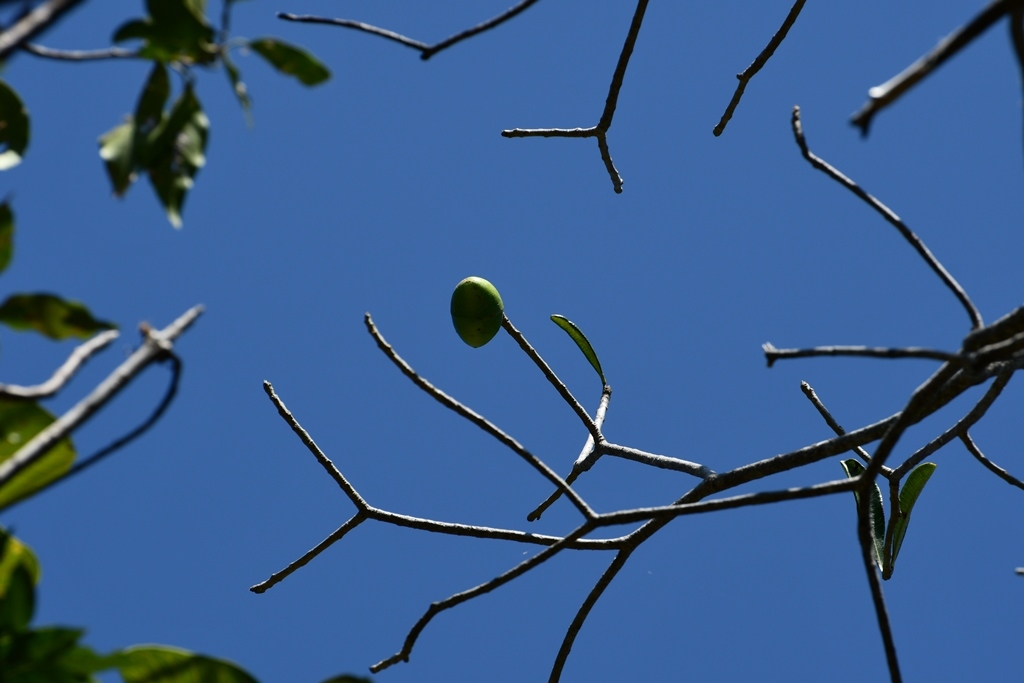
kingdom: Plantae
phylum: Tracheophyta
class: Magnoliopsida
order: Gentianales
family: Apocynaceae
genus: Cascabela
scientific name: Cascabela ovata
